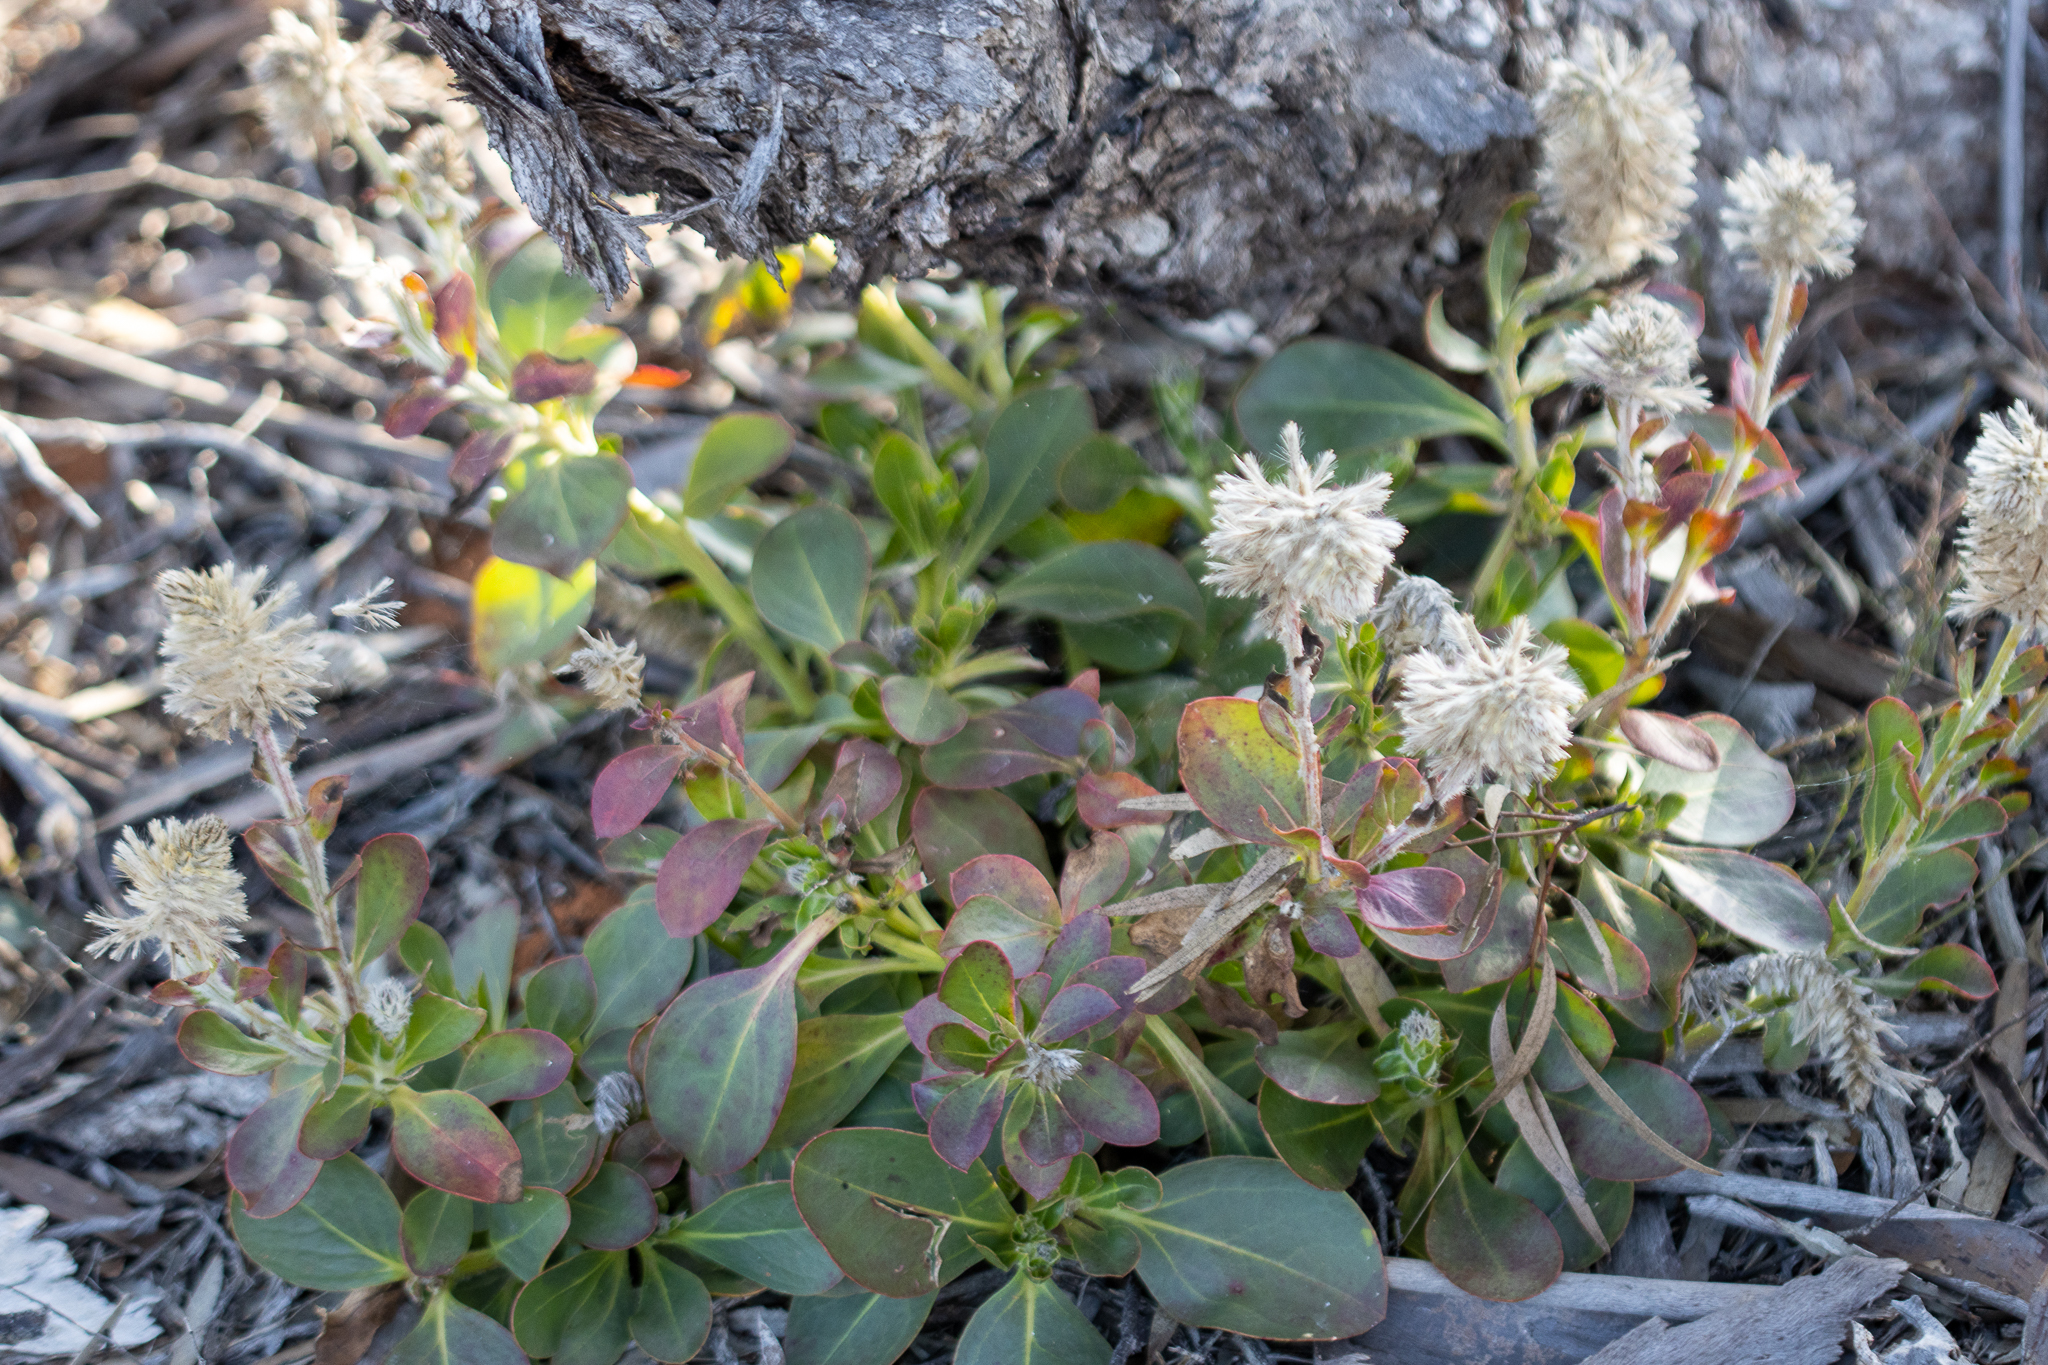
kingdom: Plantae
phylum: Tracheophyta
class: Magnoliopsida
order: Caryophyllales
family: Amaranthaceae
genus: Ptilotus
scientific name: Ptilotus exaltatus
